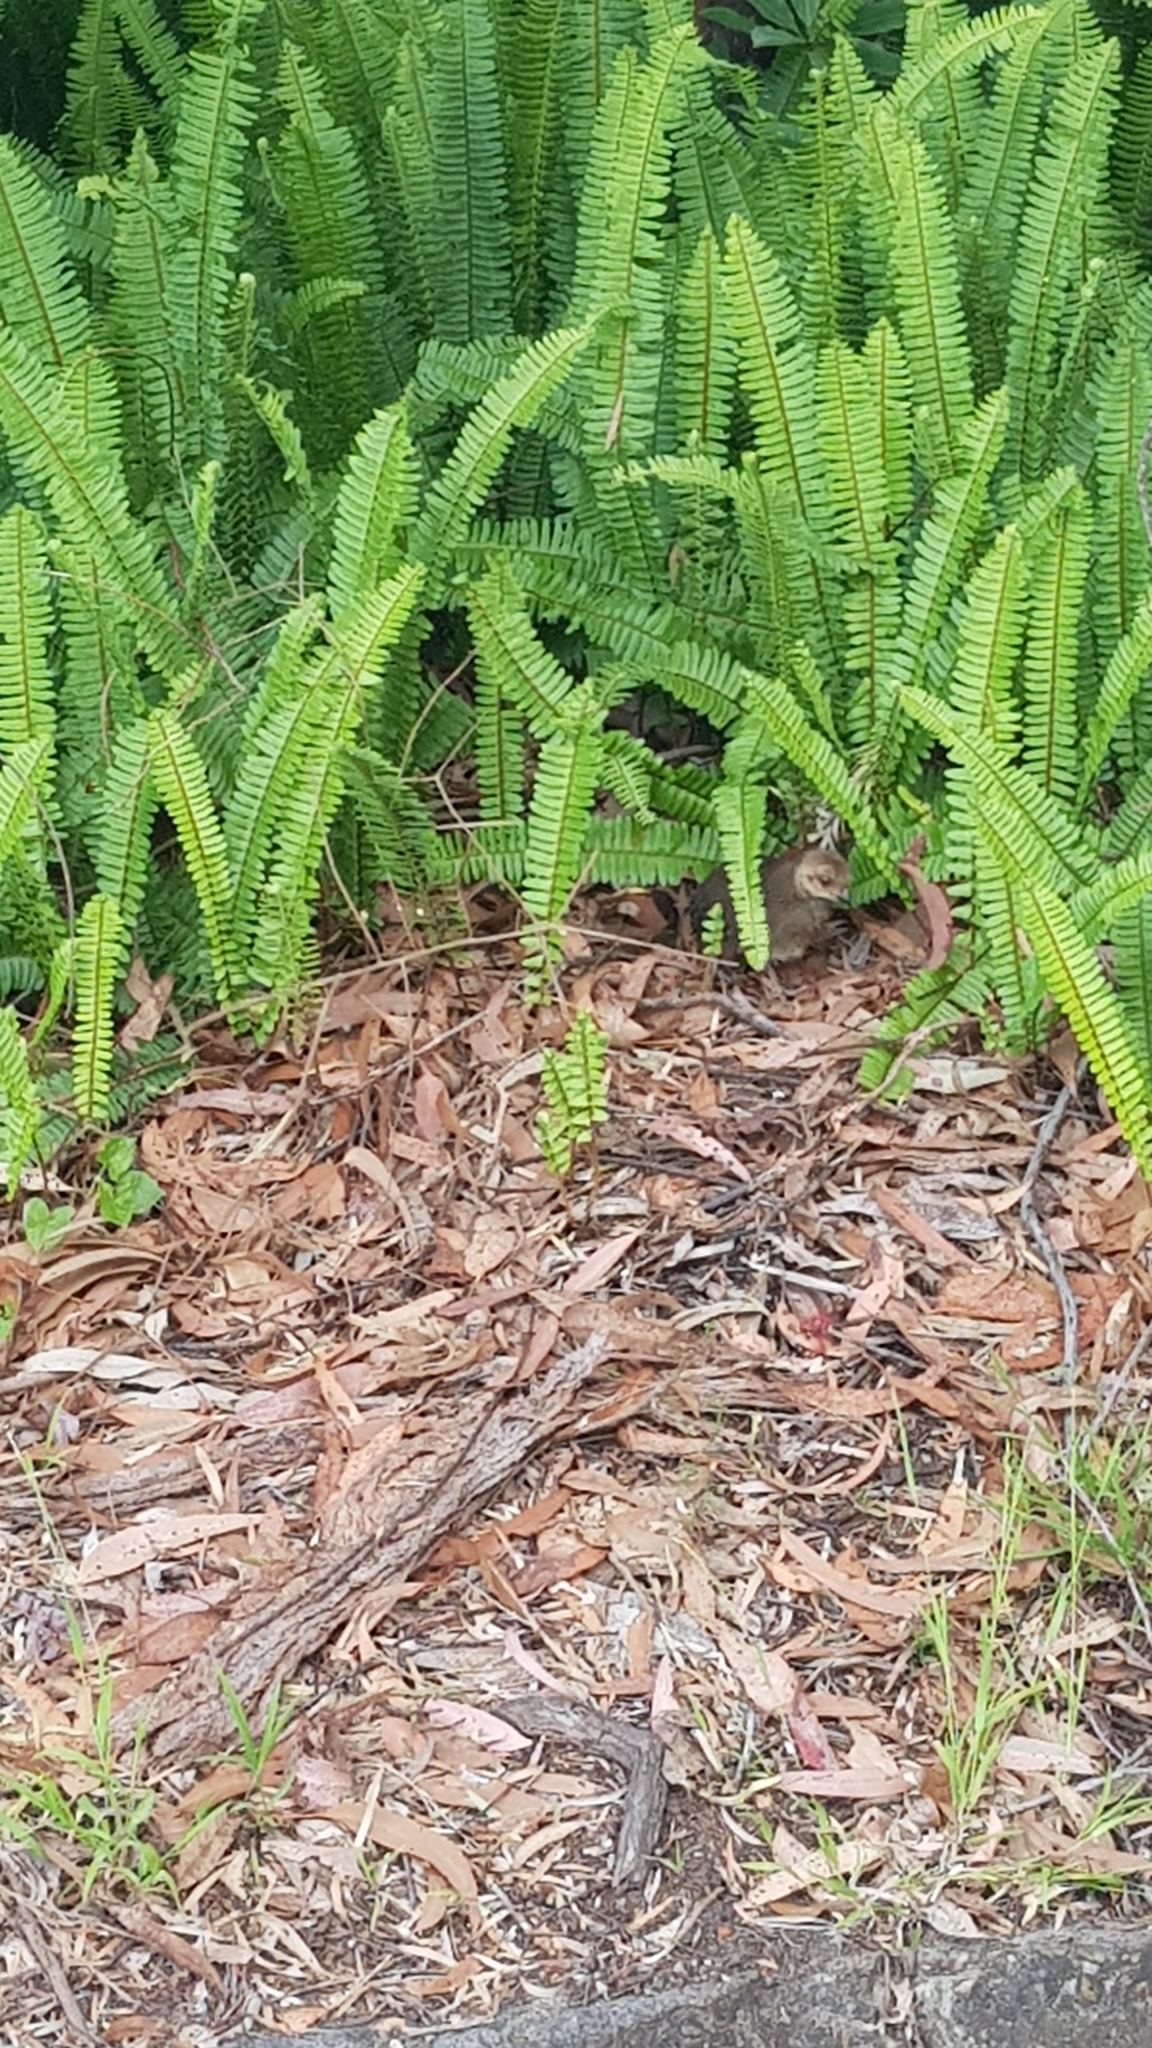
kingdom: Animalia
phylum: Chordata
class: Aves
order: Galliformes
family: Megapodiidae
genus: Alectura
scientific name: Alectura lathami
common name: Australian brushturkey
